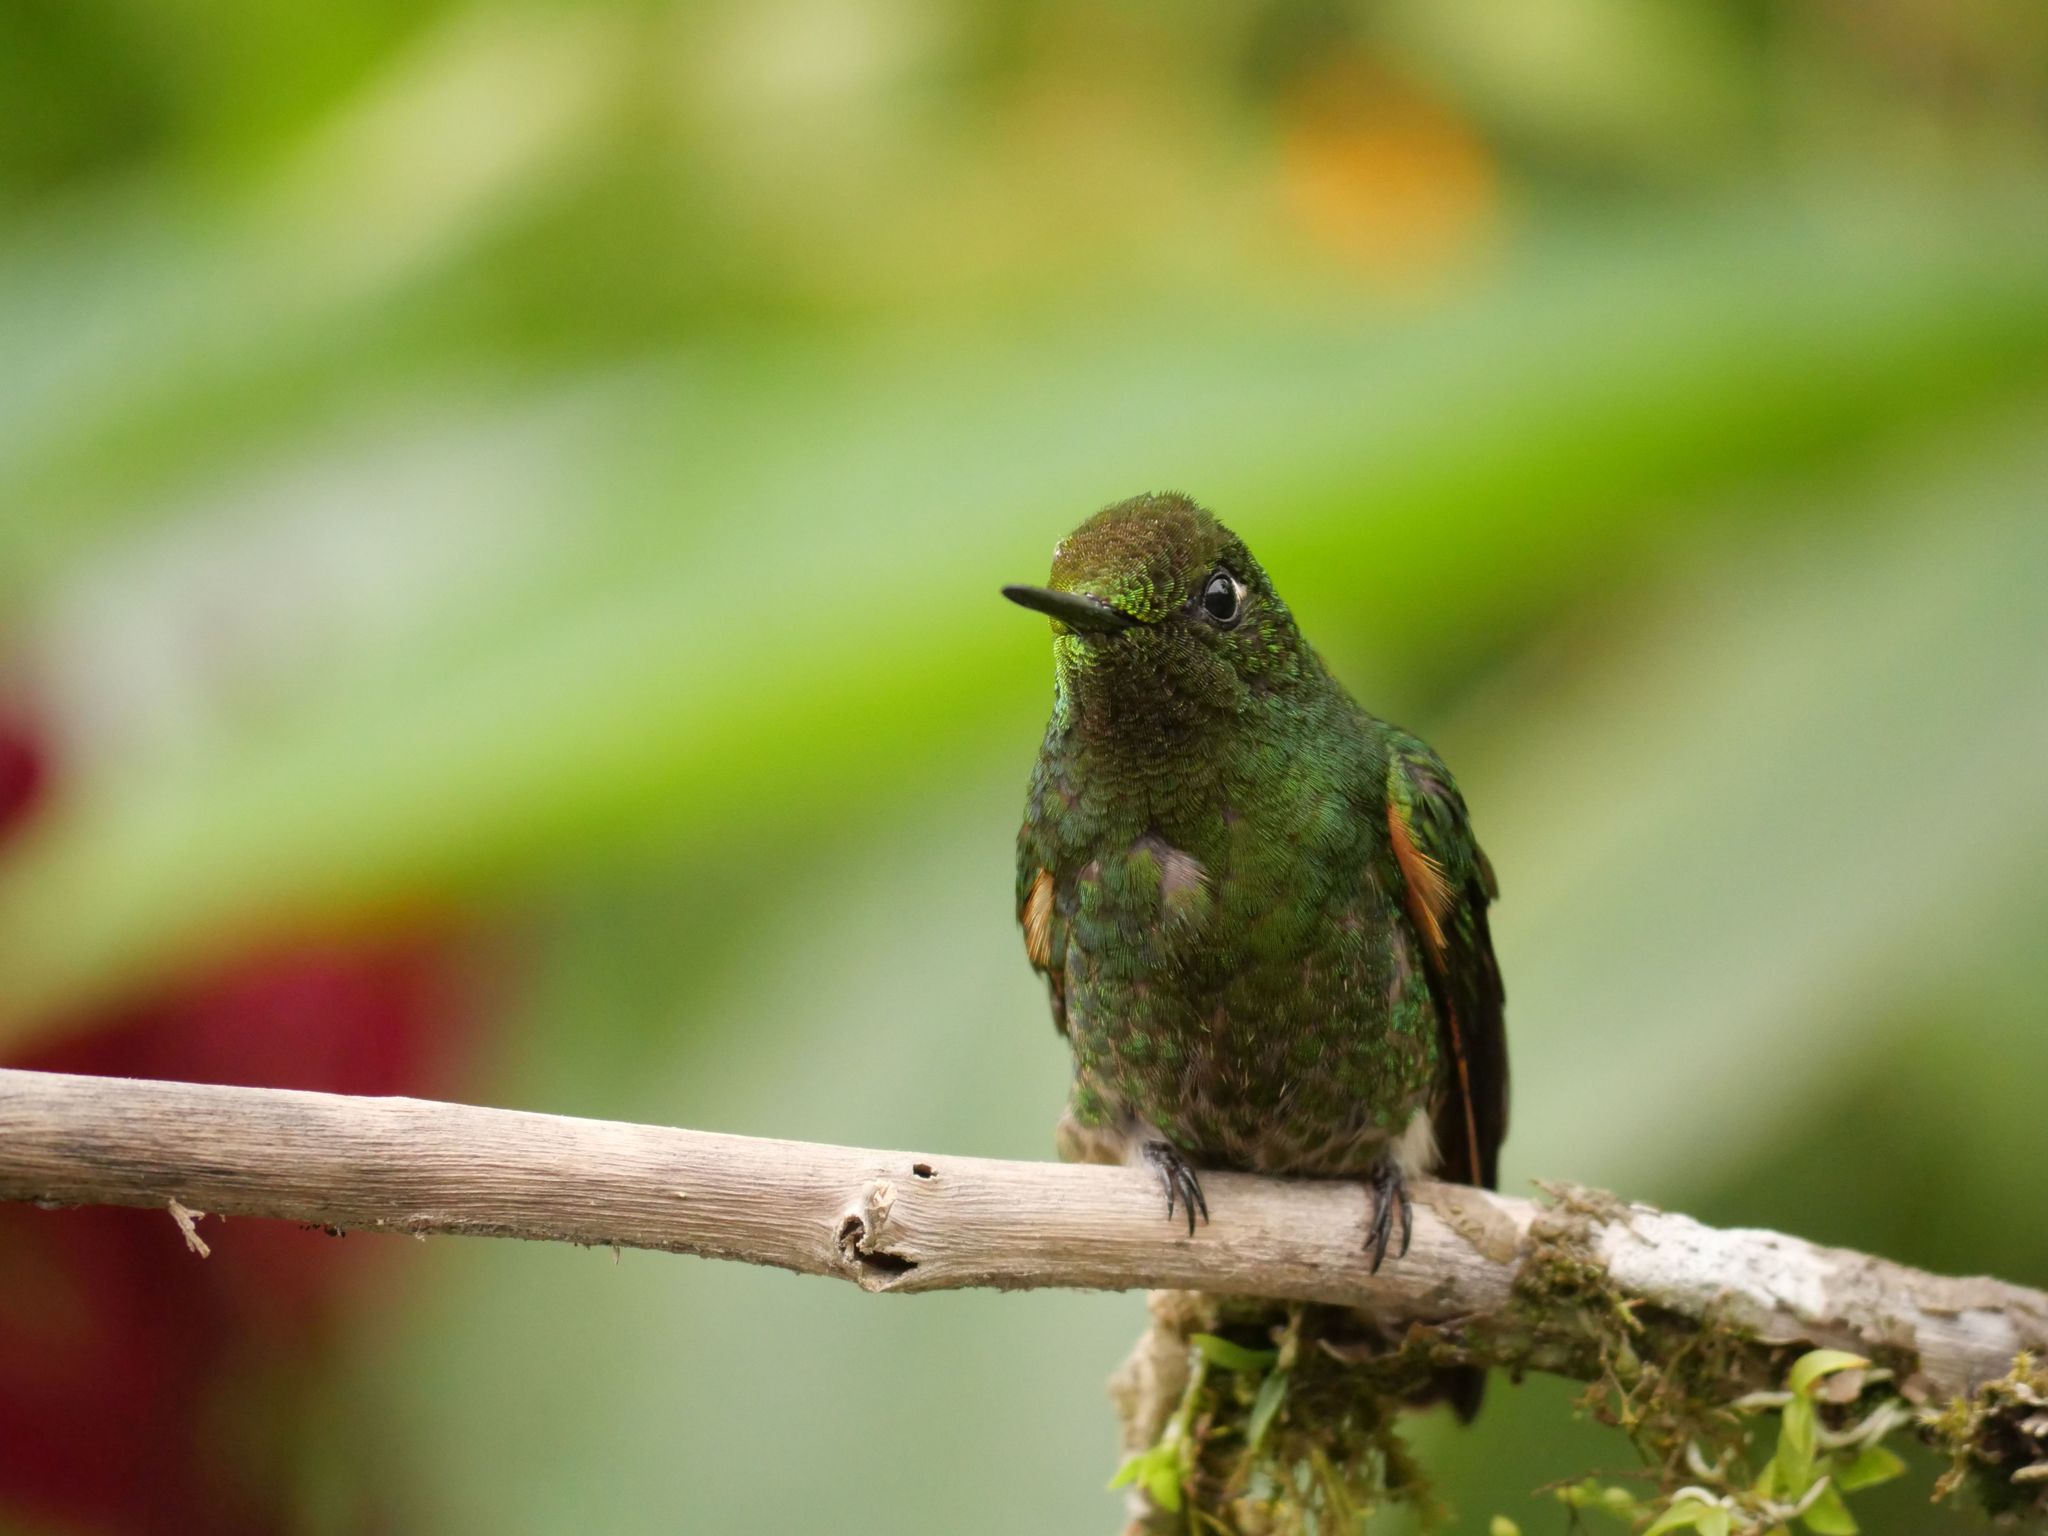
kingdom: Animalia
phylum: Chordata
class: Aves
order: Apodiformes
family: Trochilidae
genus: Boissonneaua
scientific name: Boissonneaua flavescens
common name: Buff-tailed coronet
